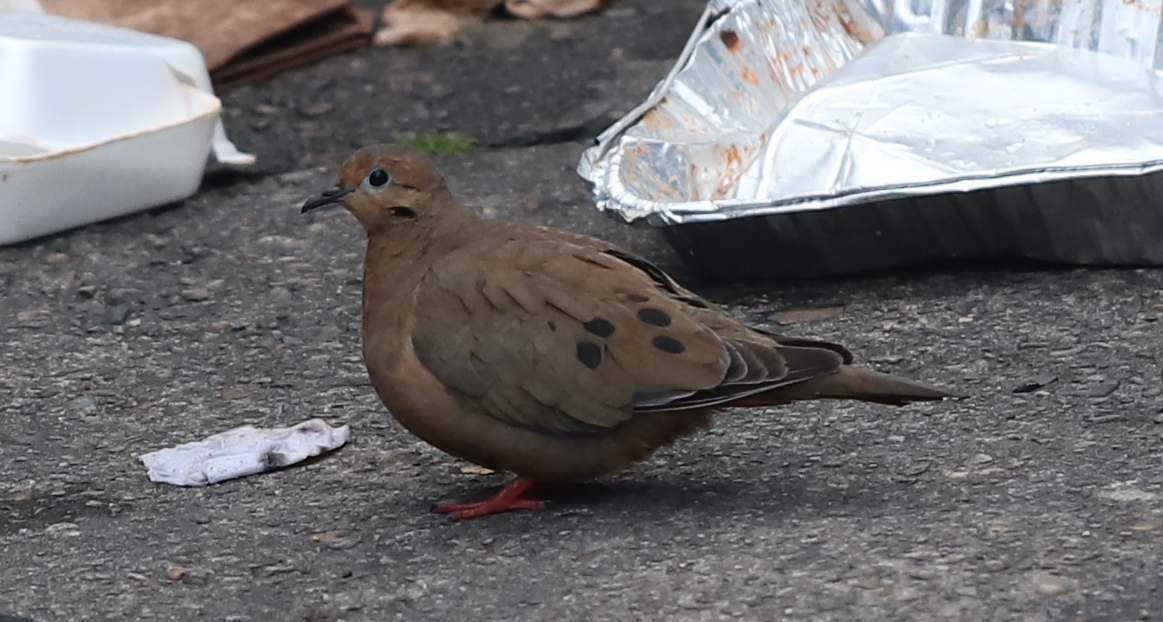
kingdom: Animalia
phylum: Chordata
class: Aves
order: Columbiformes
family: Columbidae
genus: Zenaida
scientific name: Zenaida auriculata
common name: Eared dove
